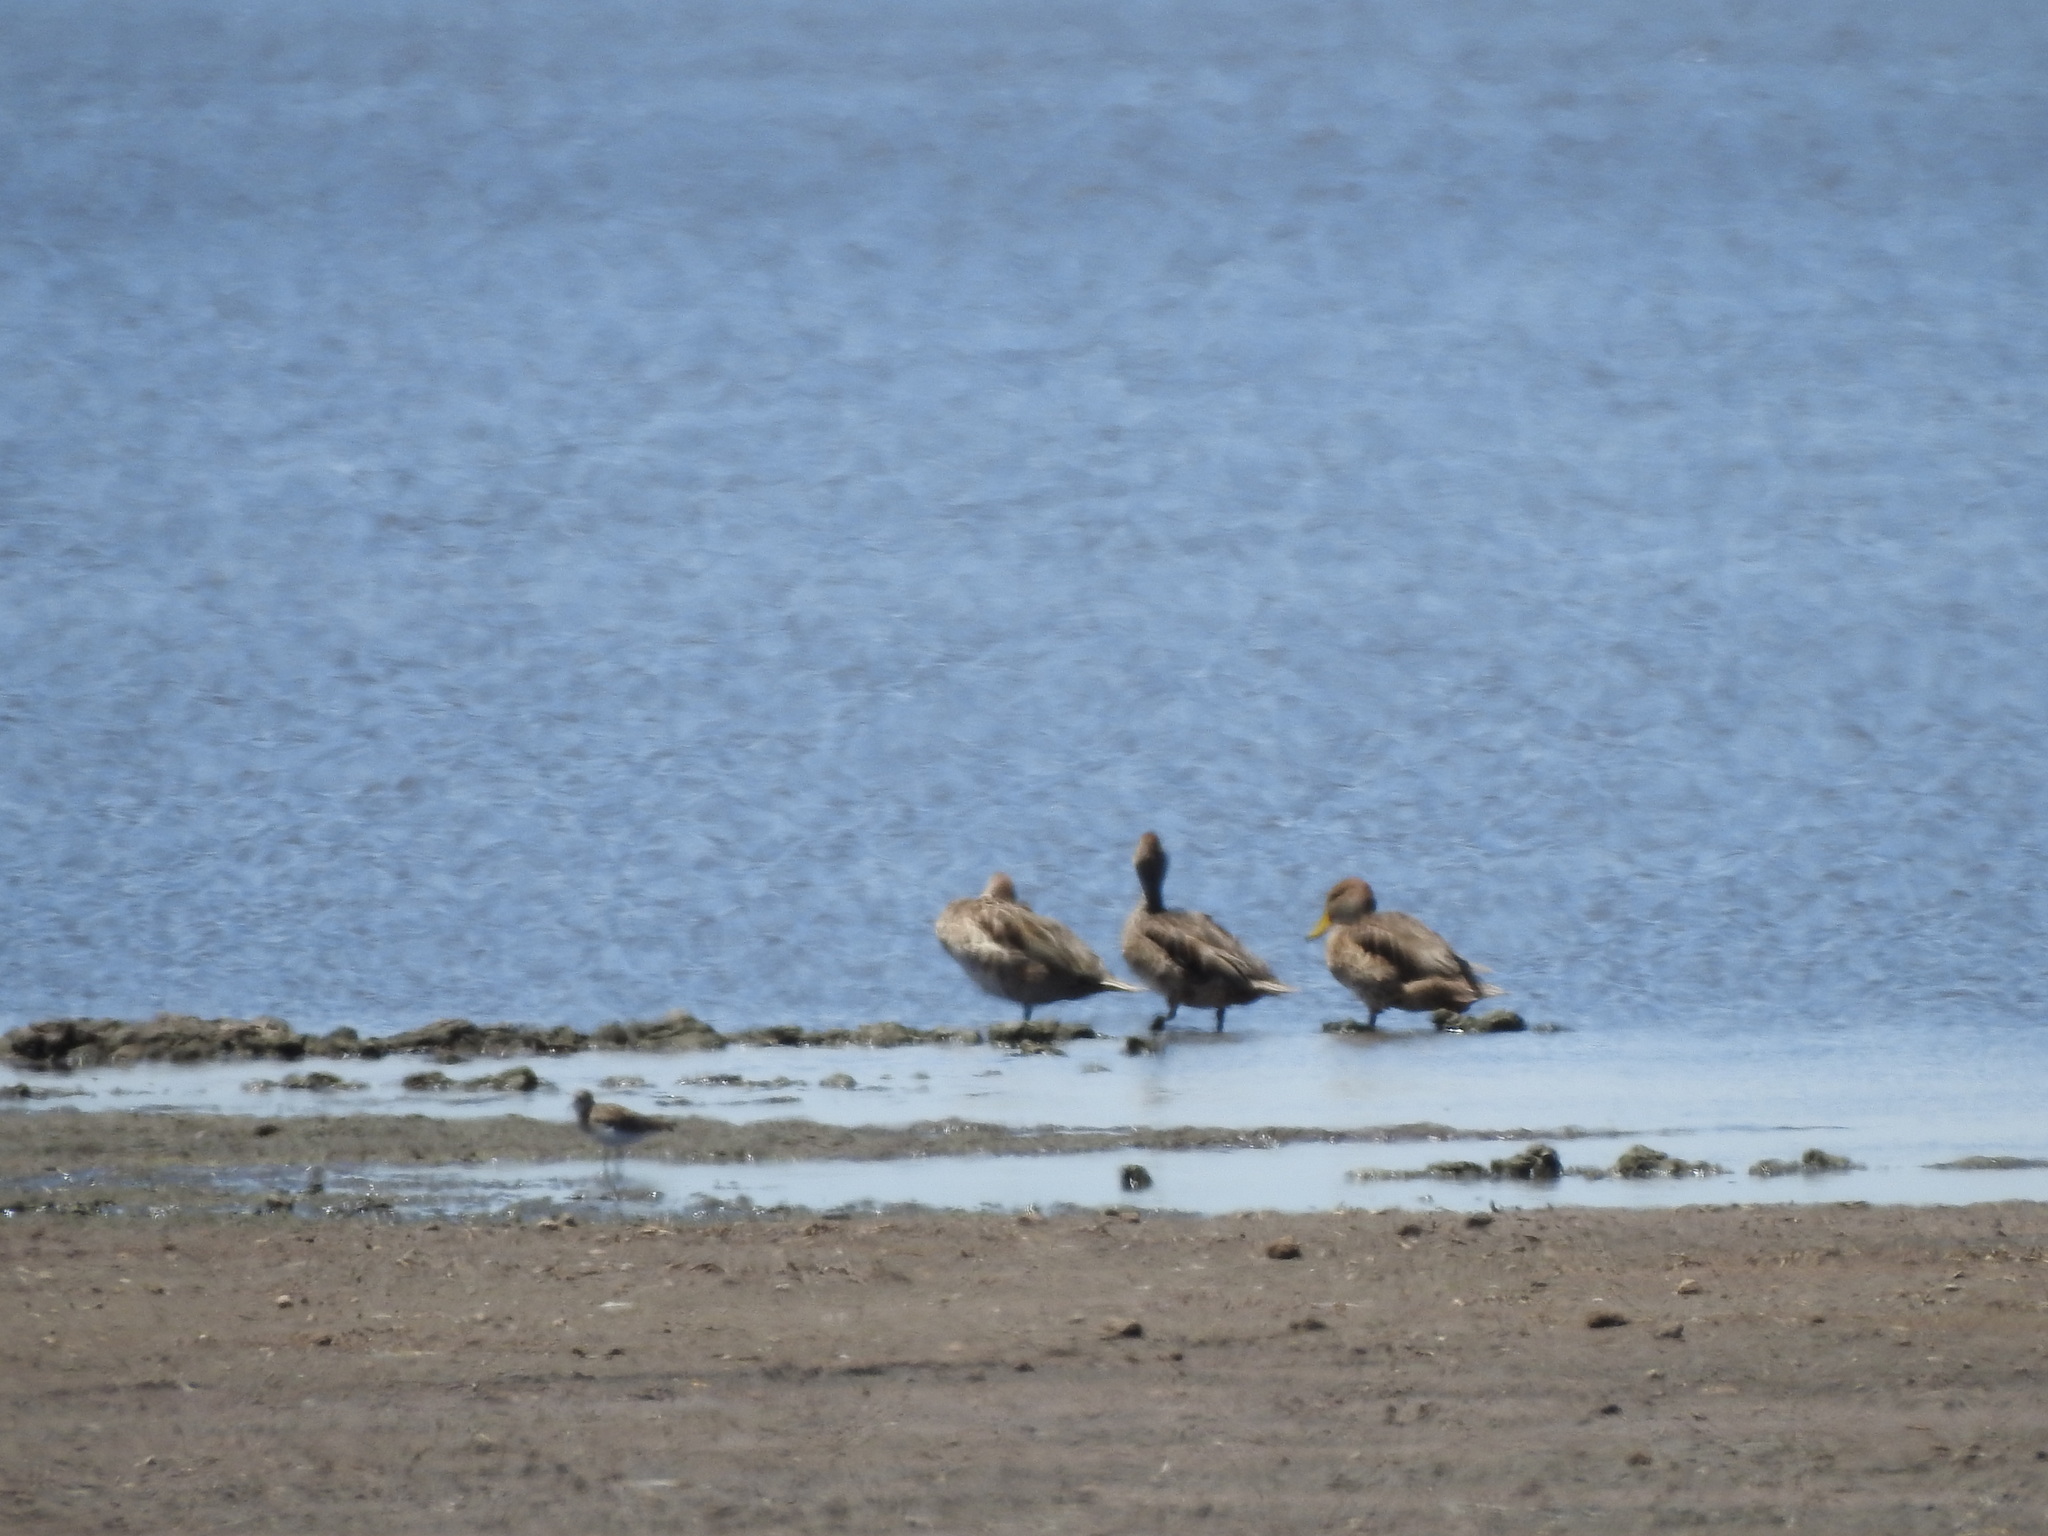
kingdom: Animalia
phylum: Chordata
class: Aves
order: Anseriformes
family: Anatidae
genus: Anas
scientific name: Anas georgica
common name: Yellow-billed pintail
